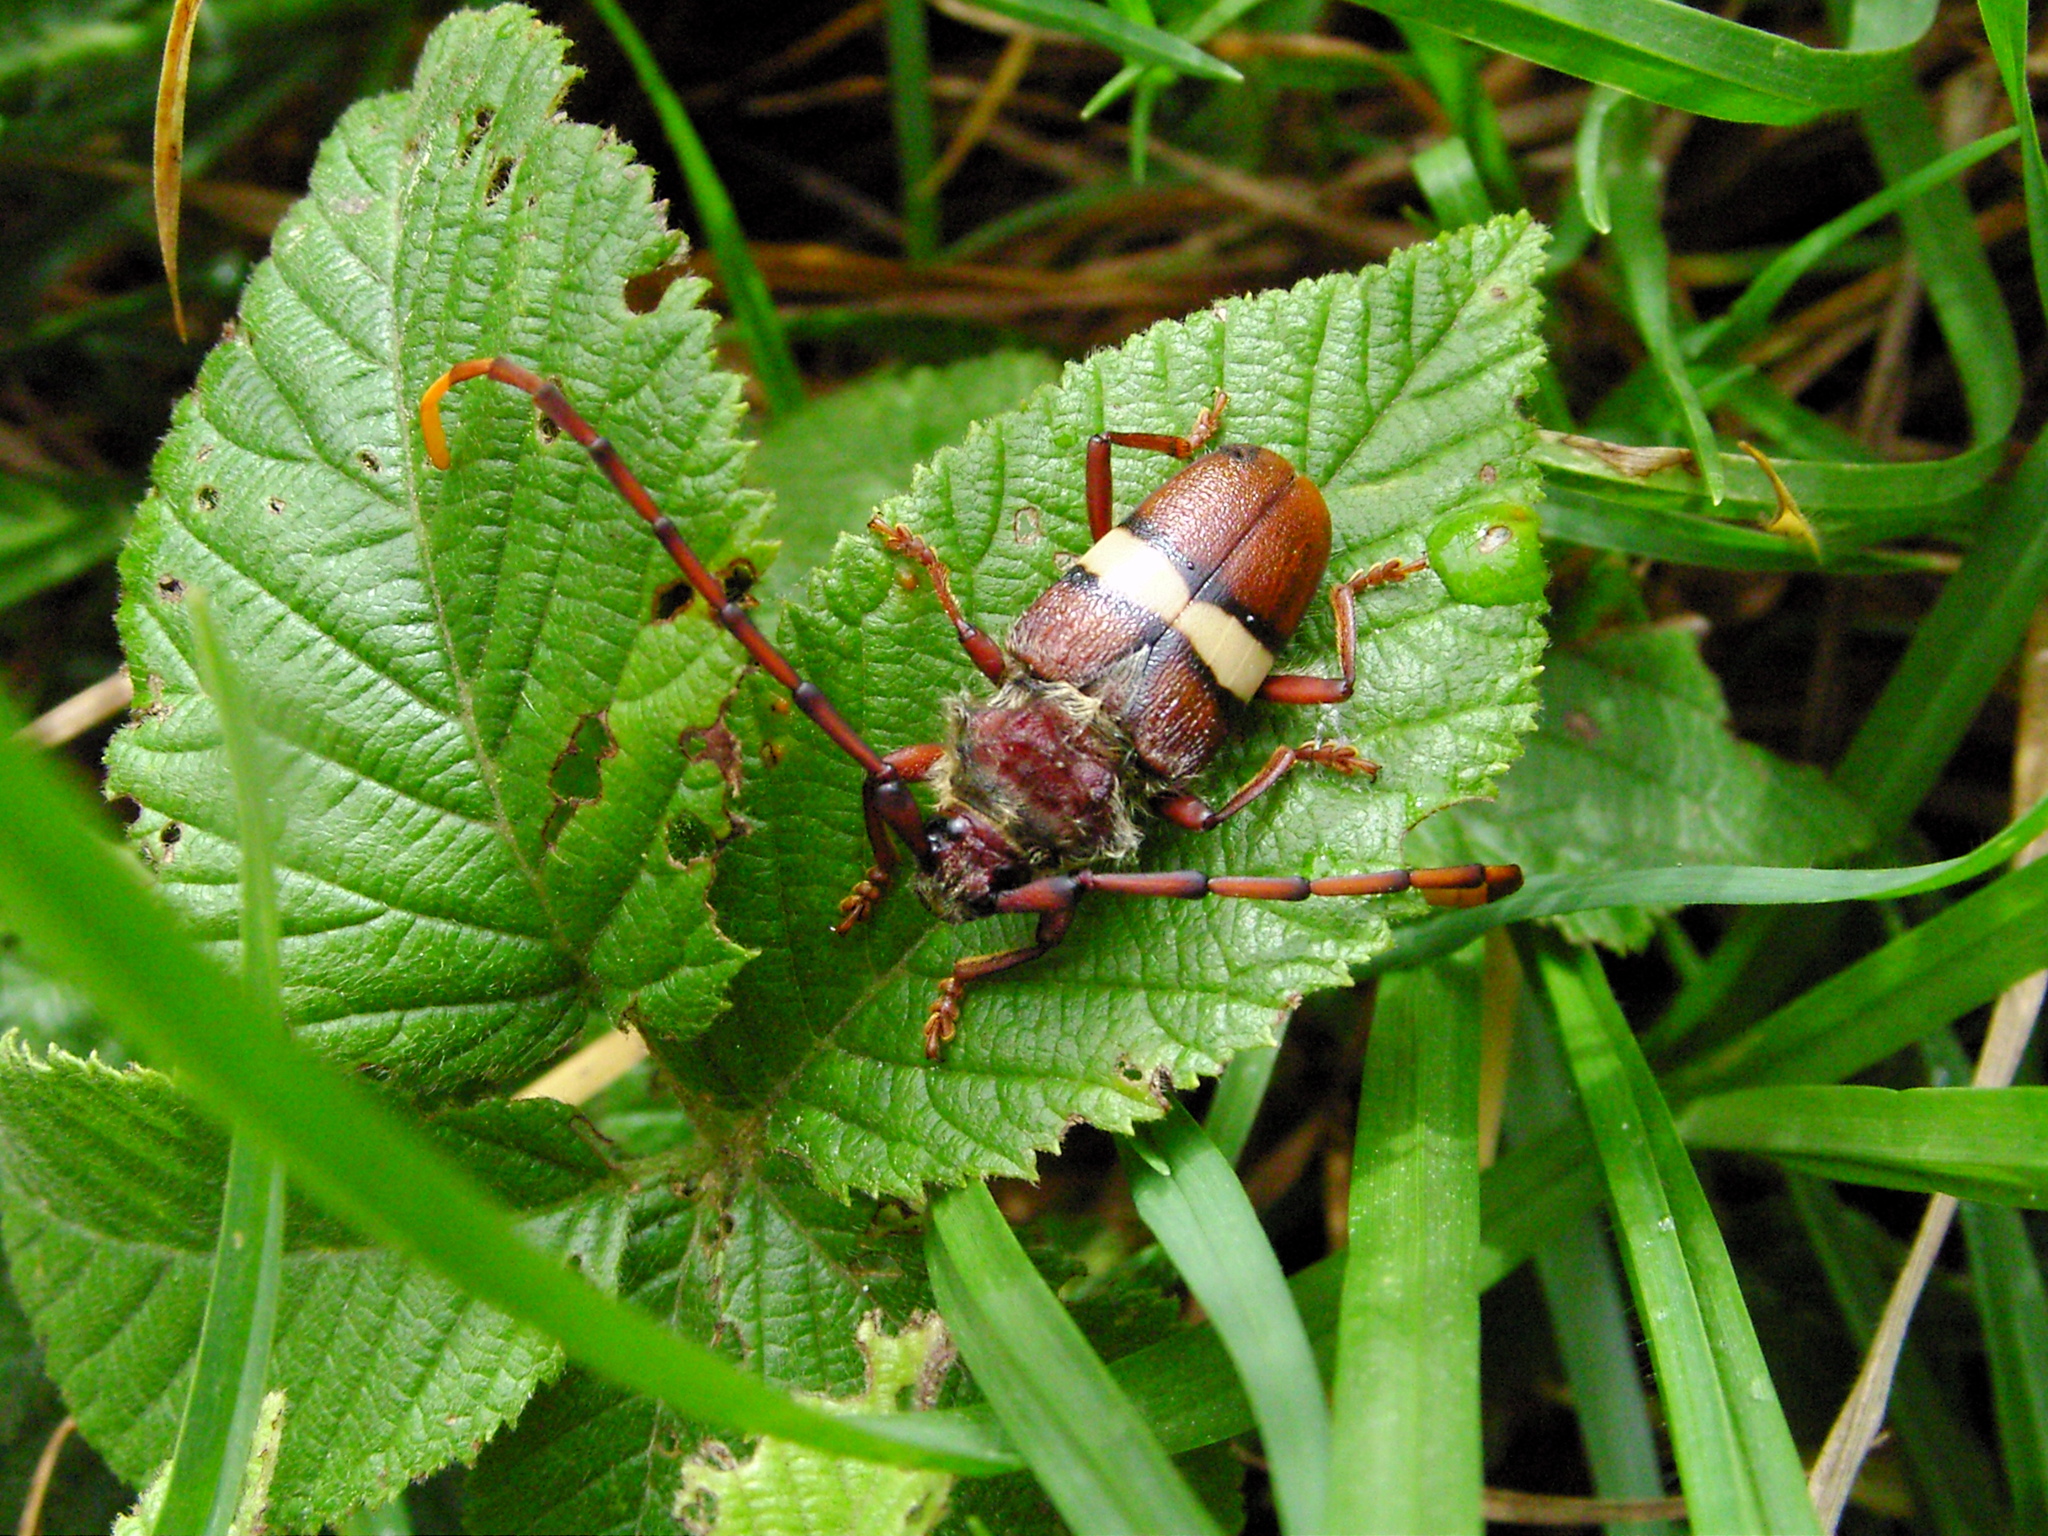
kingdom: Animalia
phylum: Arthropoda
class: Insecta
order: Coleoptera
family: Cerambycidae
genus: Deretrachys
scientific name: Deretrachys juvencus
